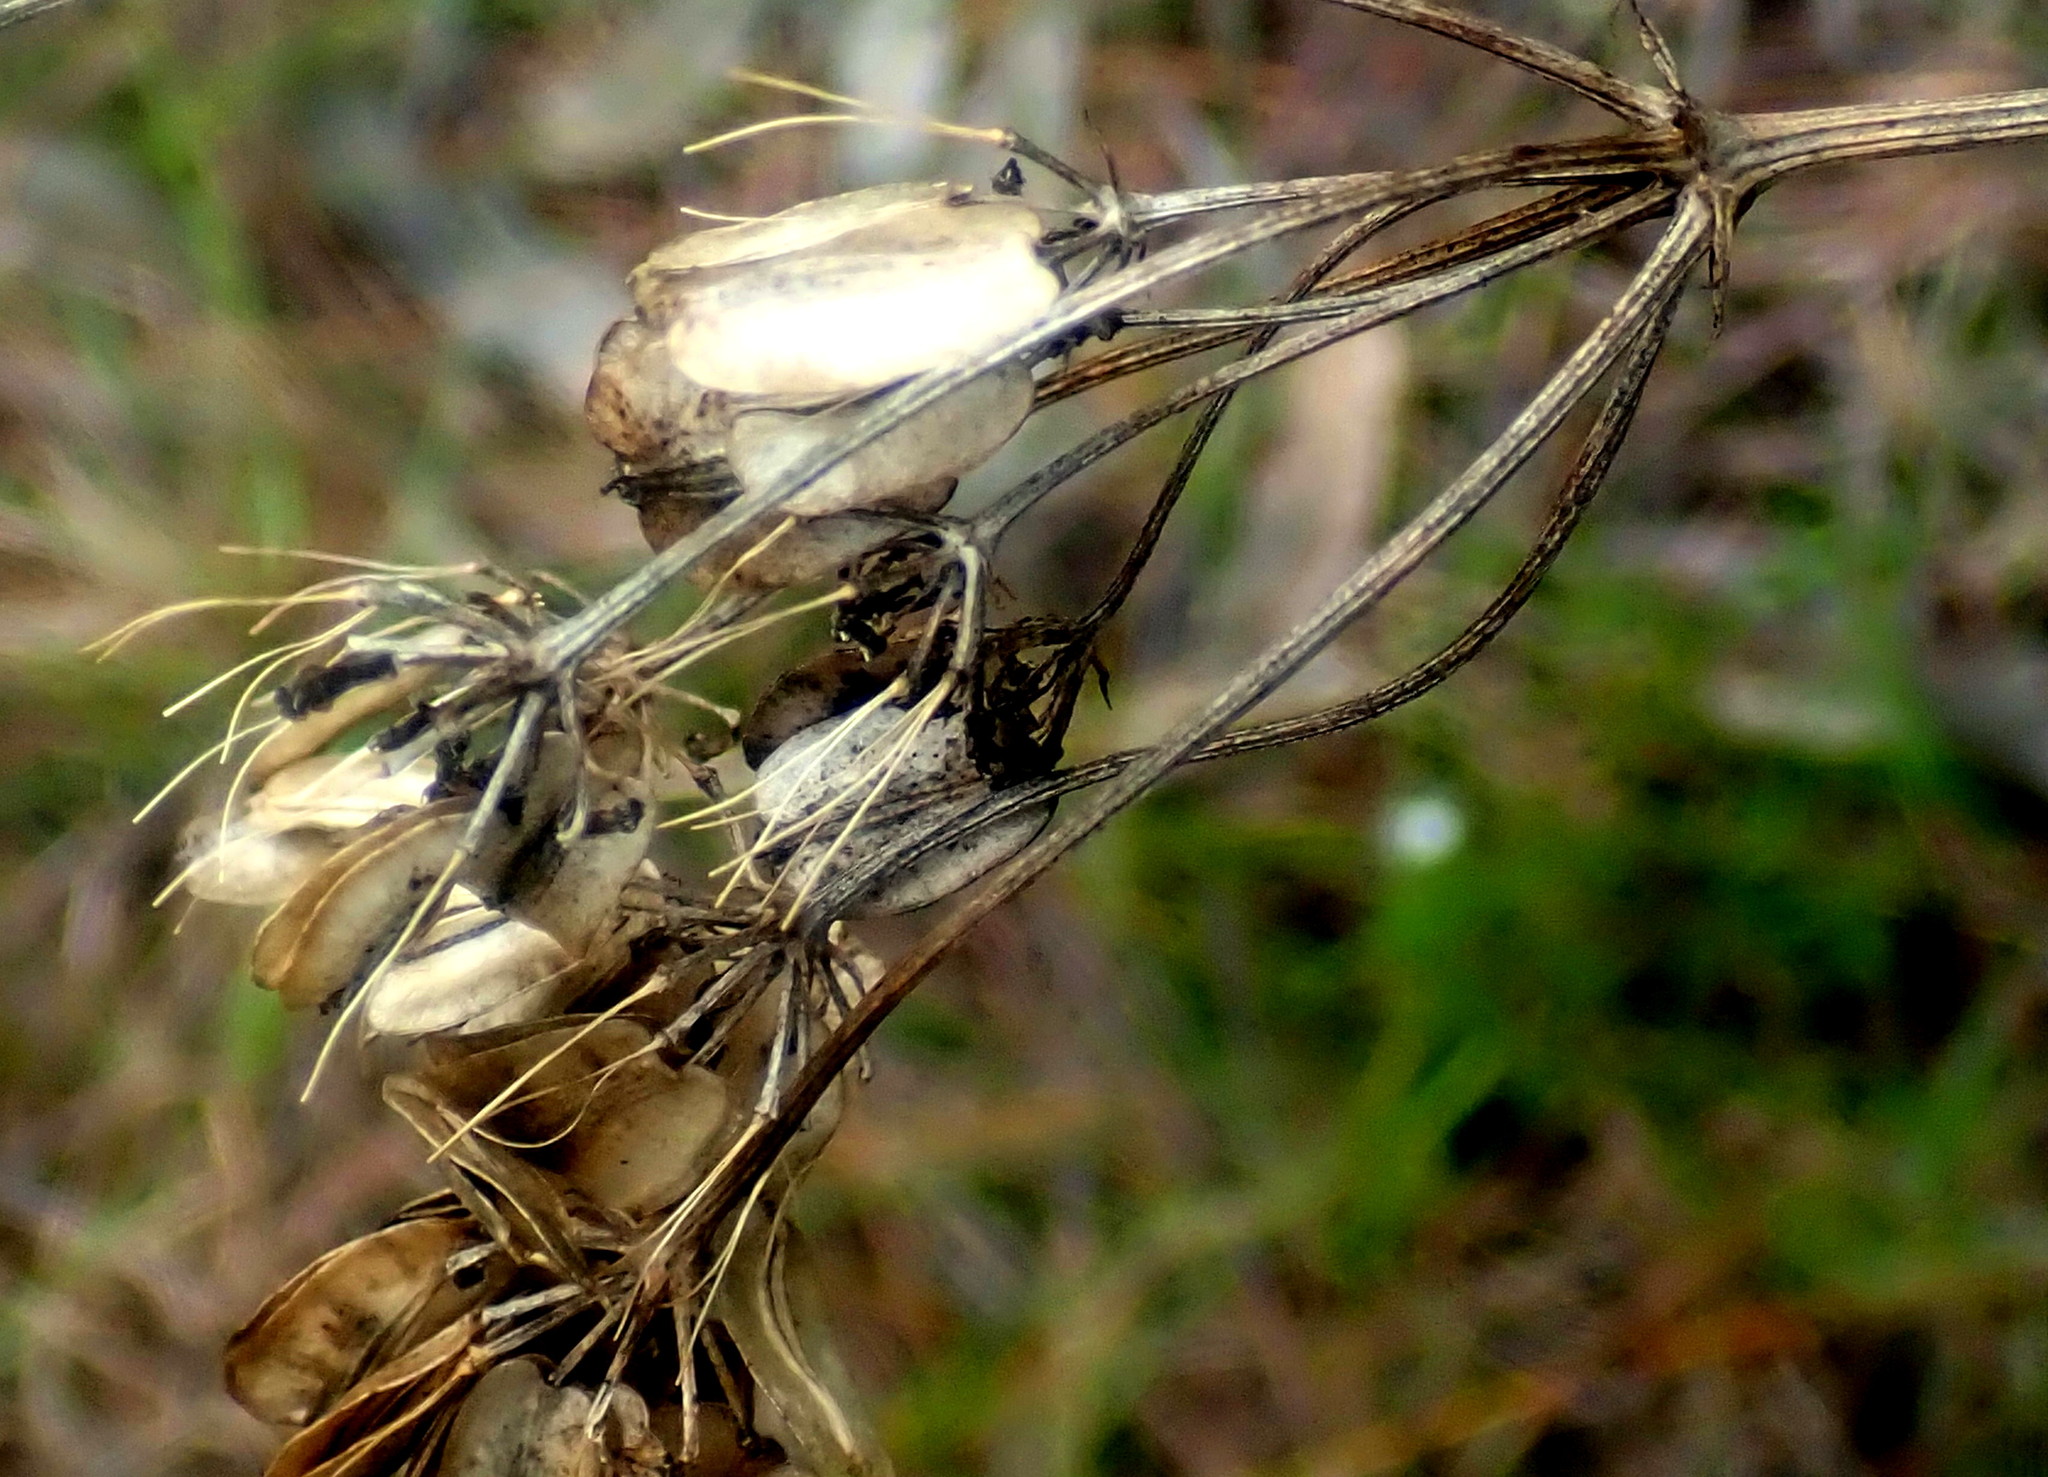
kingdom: Plantae
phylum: Tracheophyta
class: Magnoliopsida
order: Apiales
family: Apiaceae
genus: Nanobubon
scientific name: Nanobubon hypogaeum
